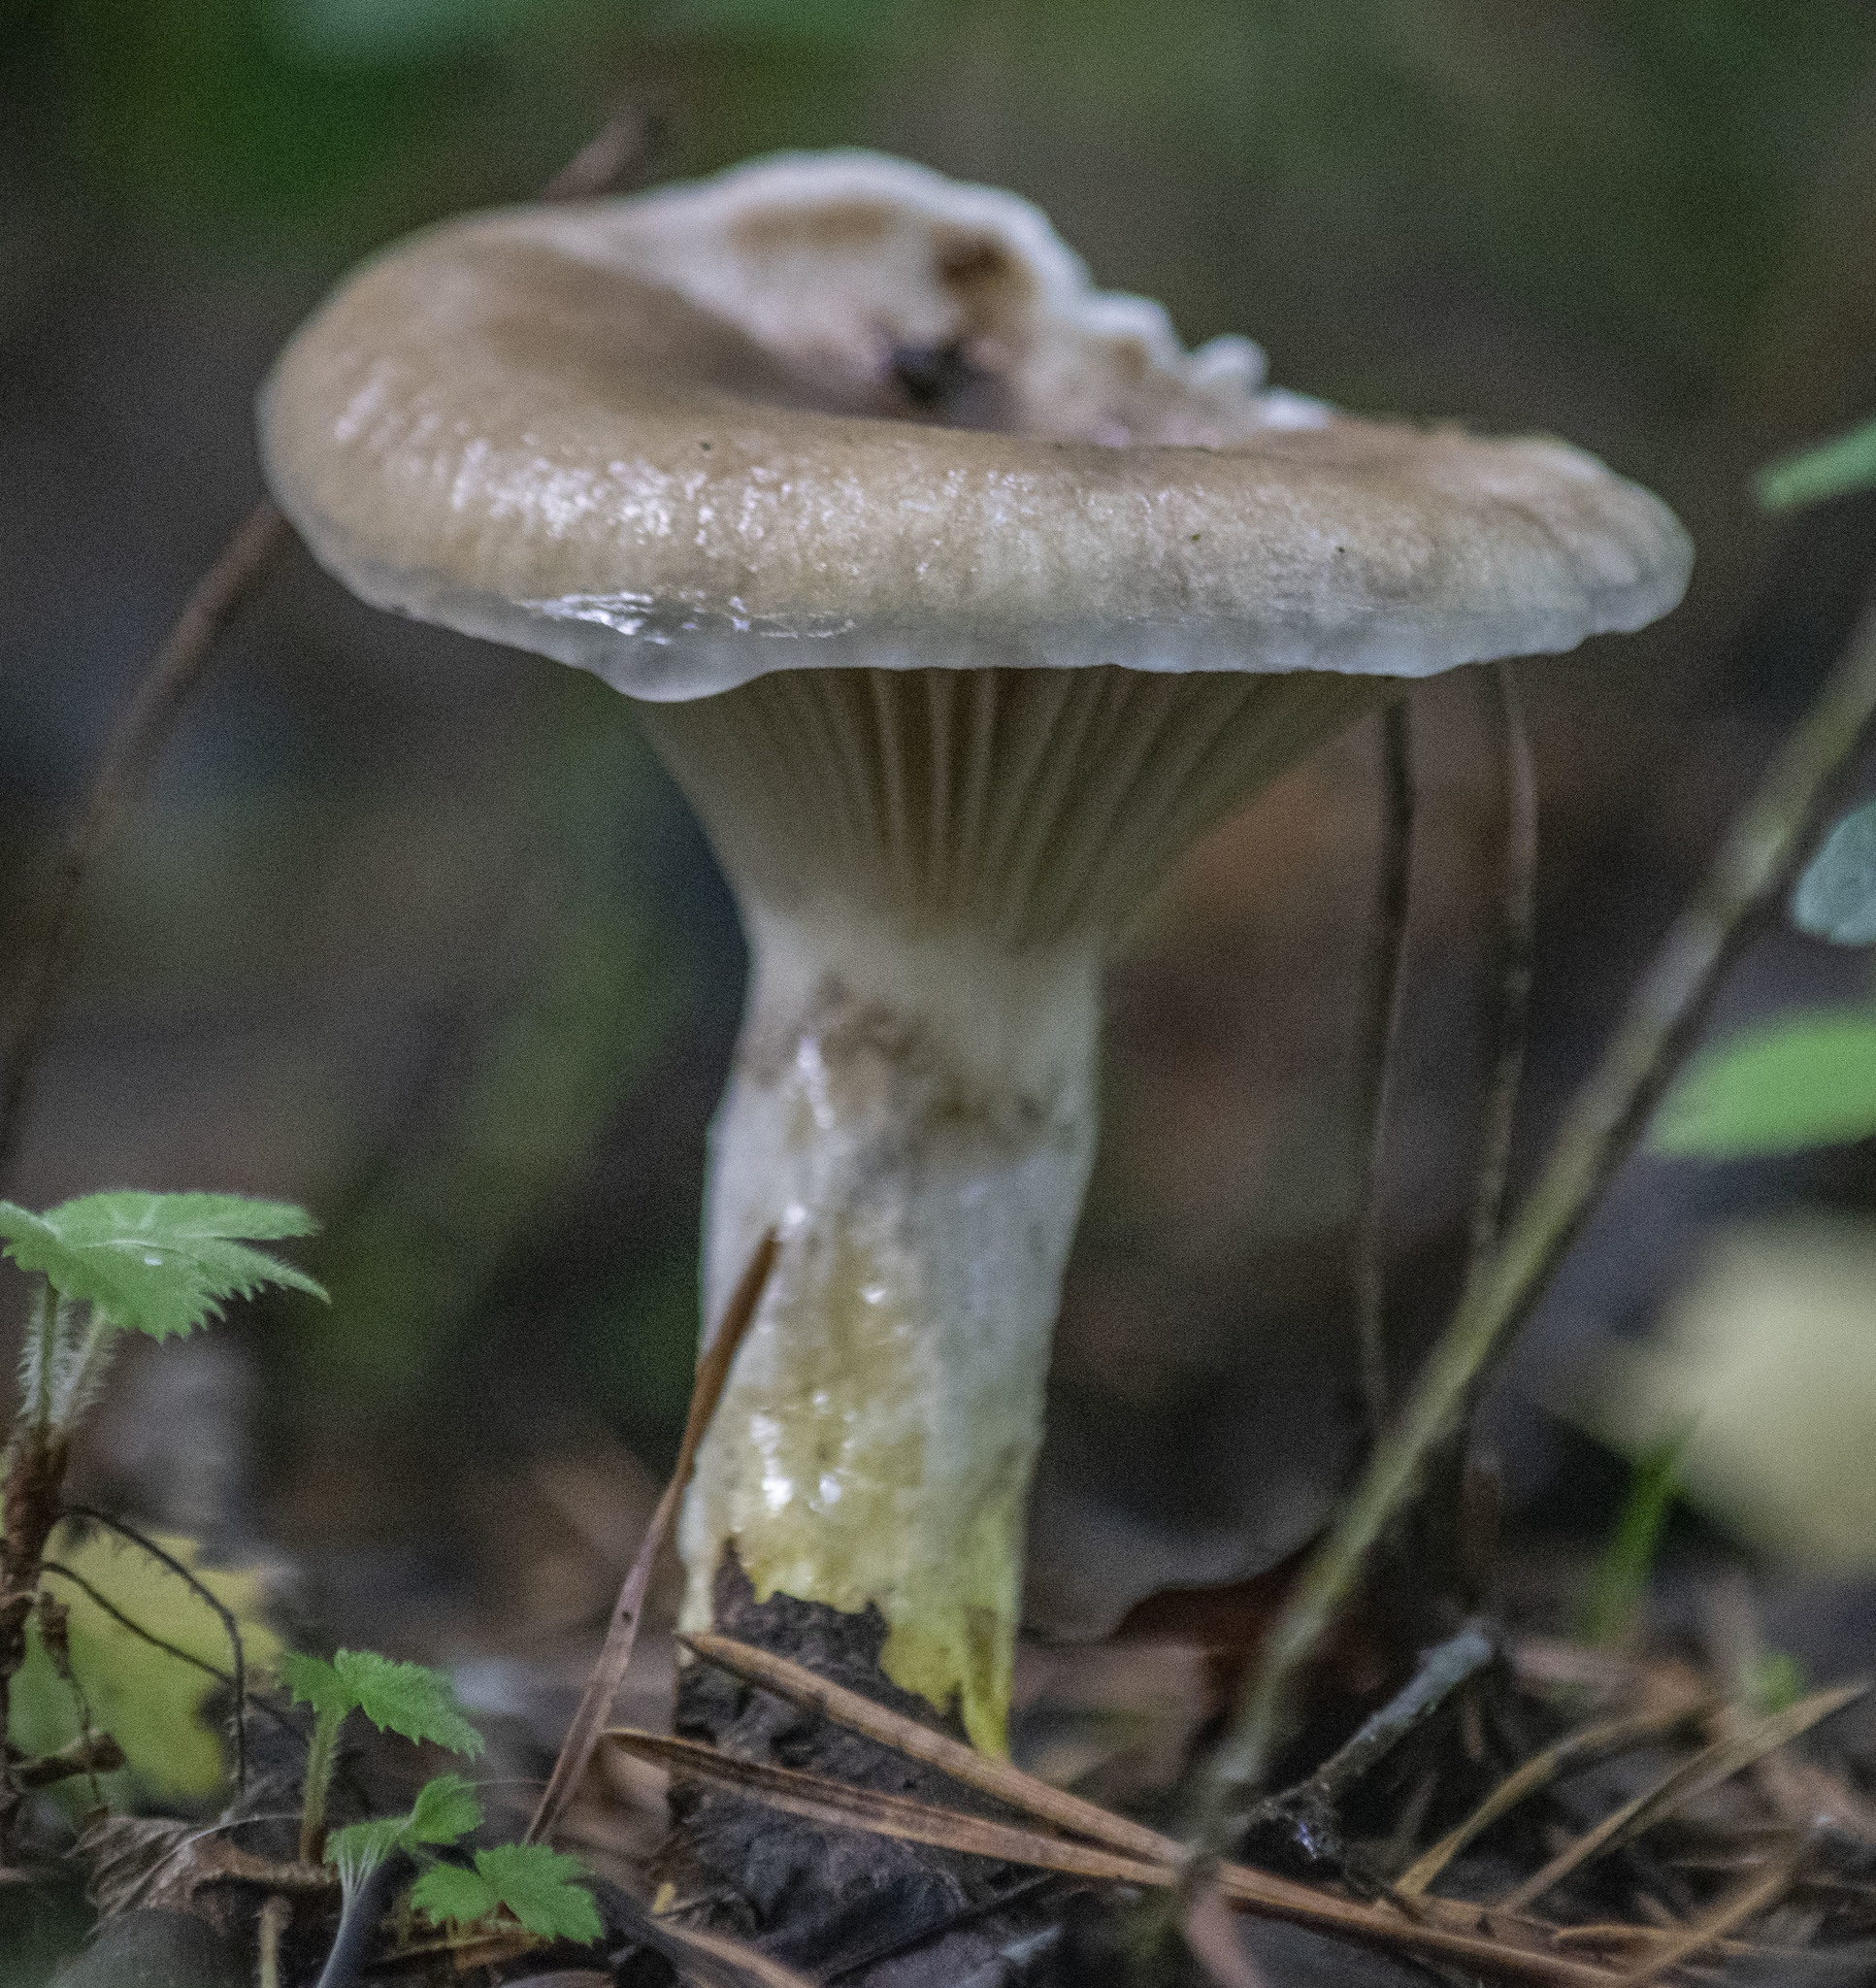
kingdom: Fungi
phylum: Basidiomycota
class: Agaricomycetes
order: Boletales
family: Gomphidiaceae
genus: Gomphidius
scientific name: Gomphidius glutinosus
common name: Slimy spike
